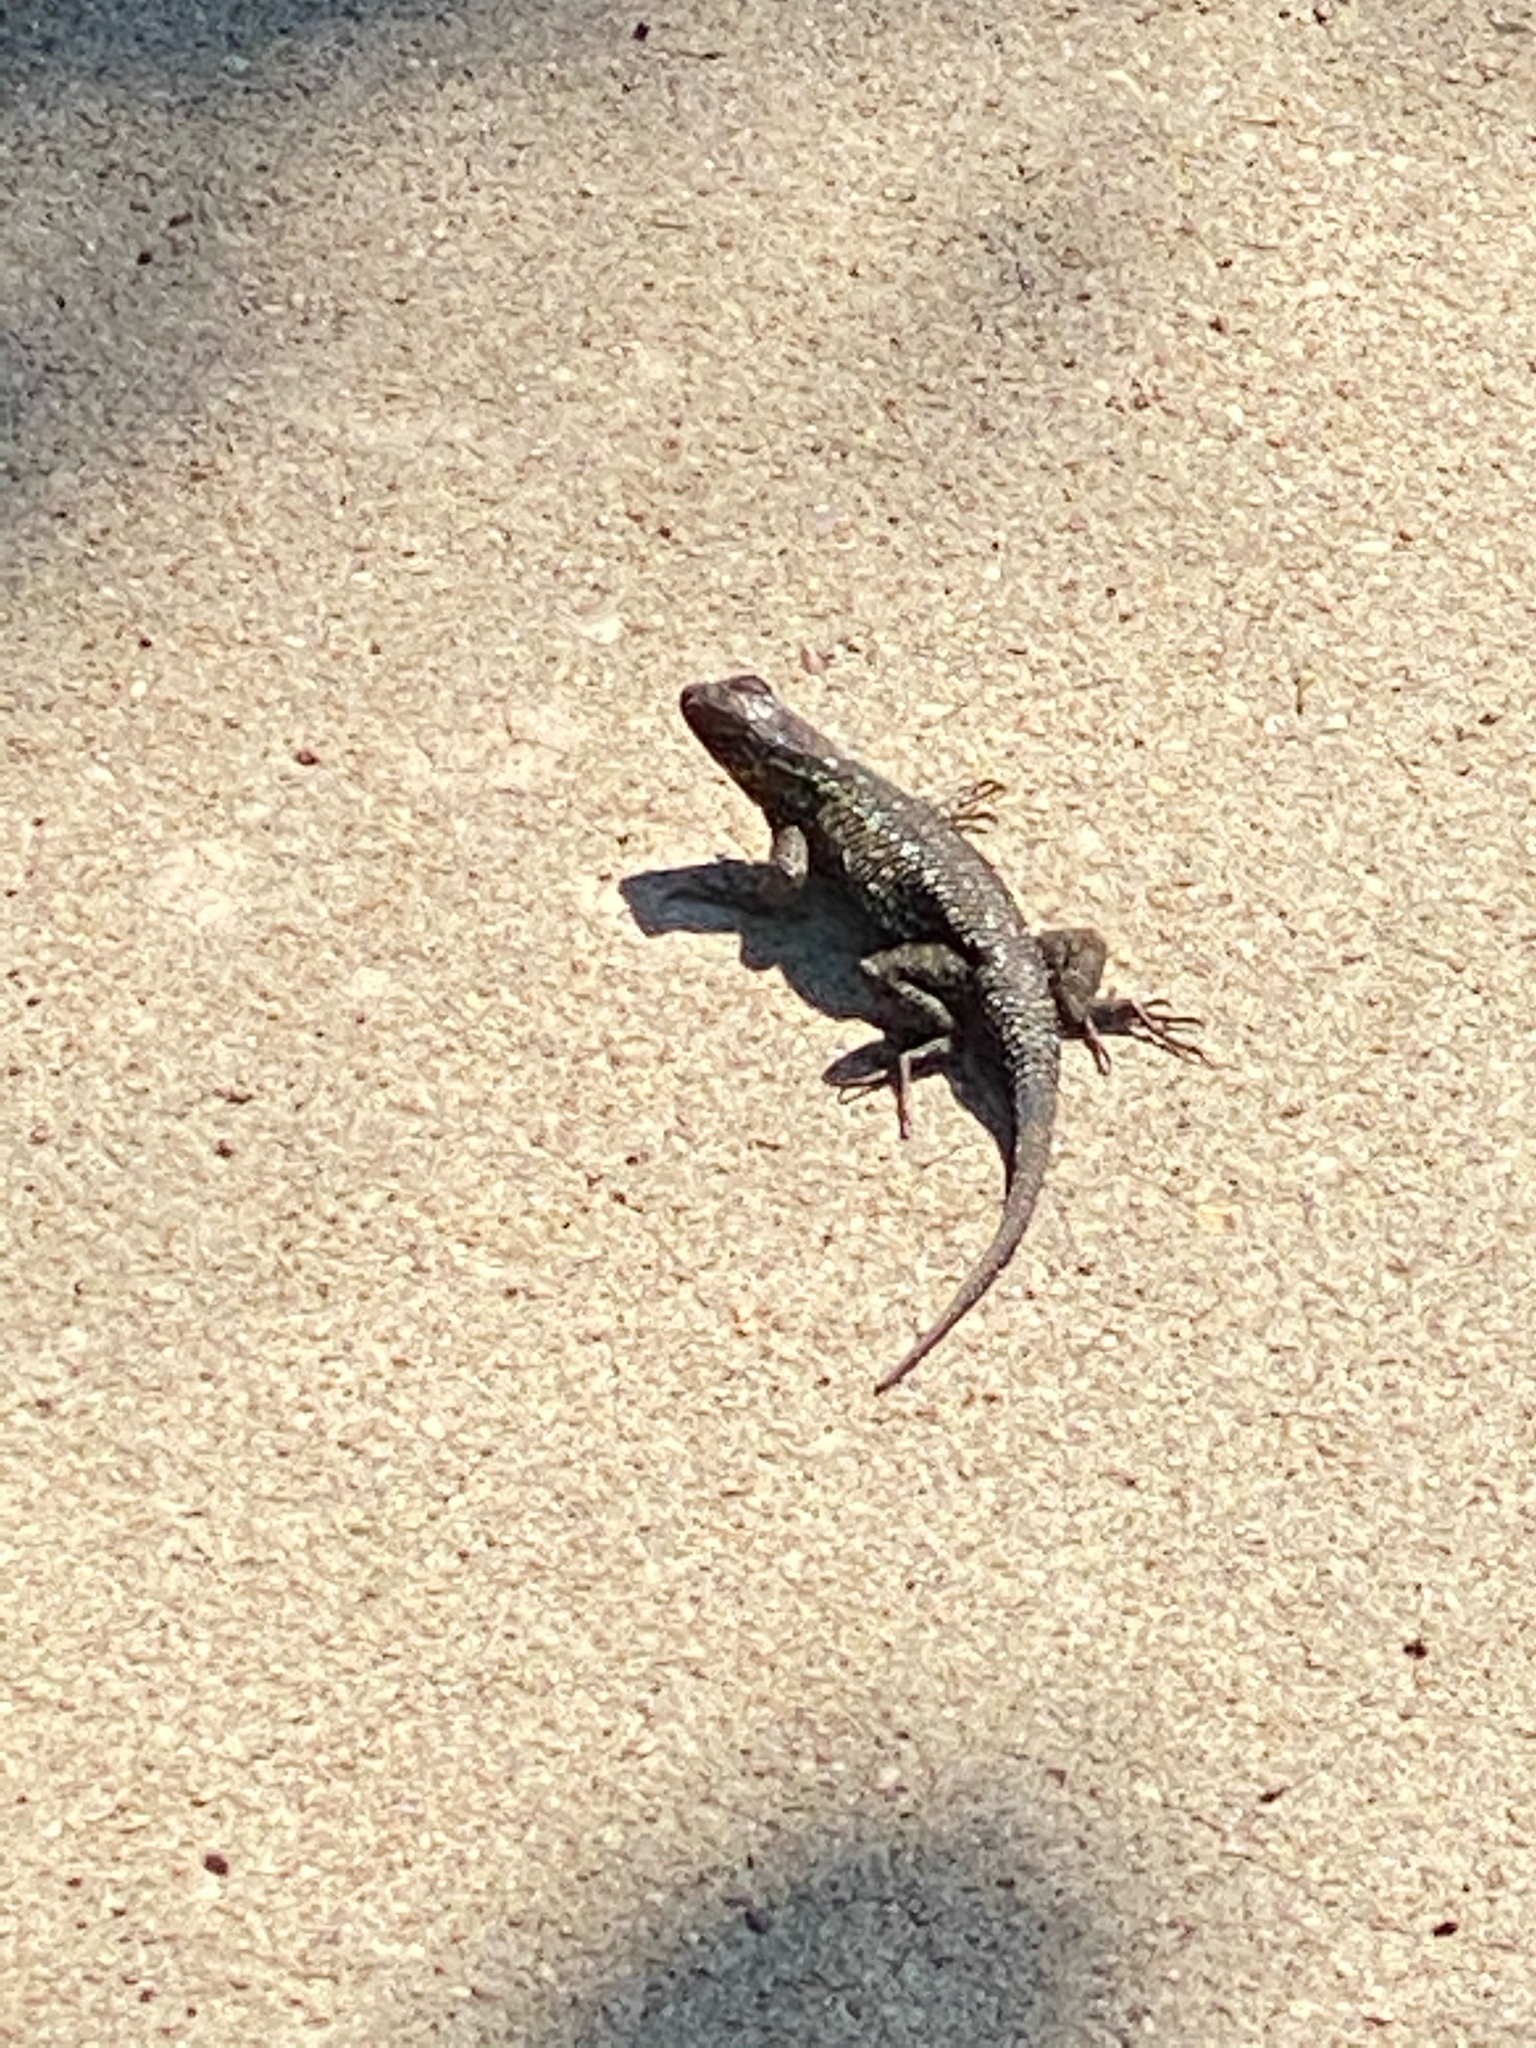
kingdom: Animalia
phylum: Chordata
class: Squamata
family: Phrynosomatidae
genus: Sceloporus
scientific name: Sceloporus occidentalis
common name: Western fence lizard
